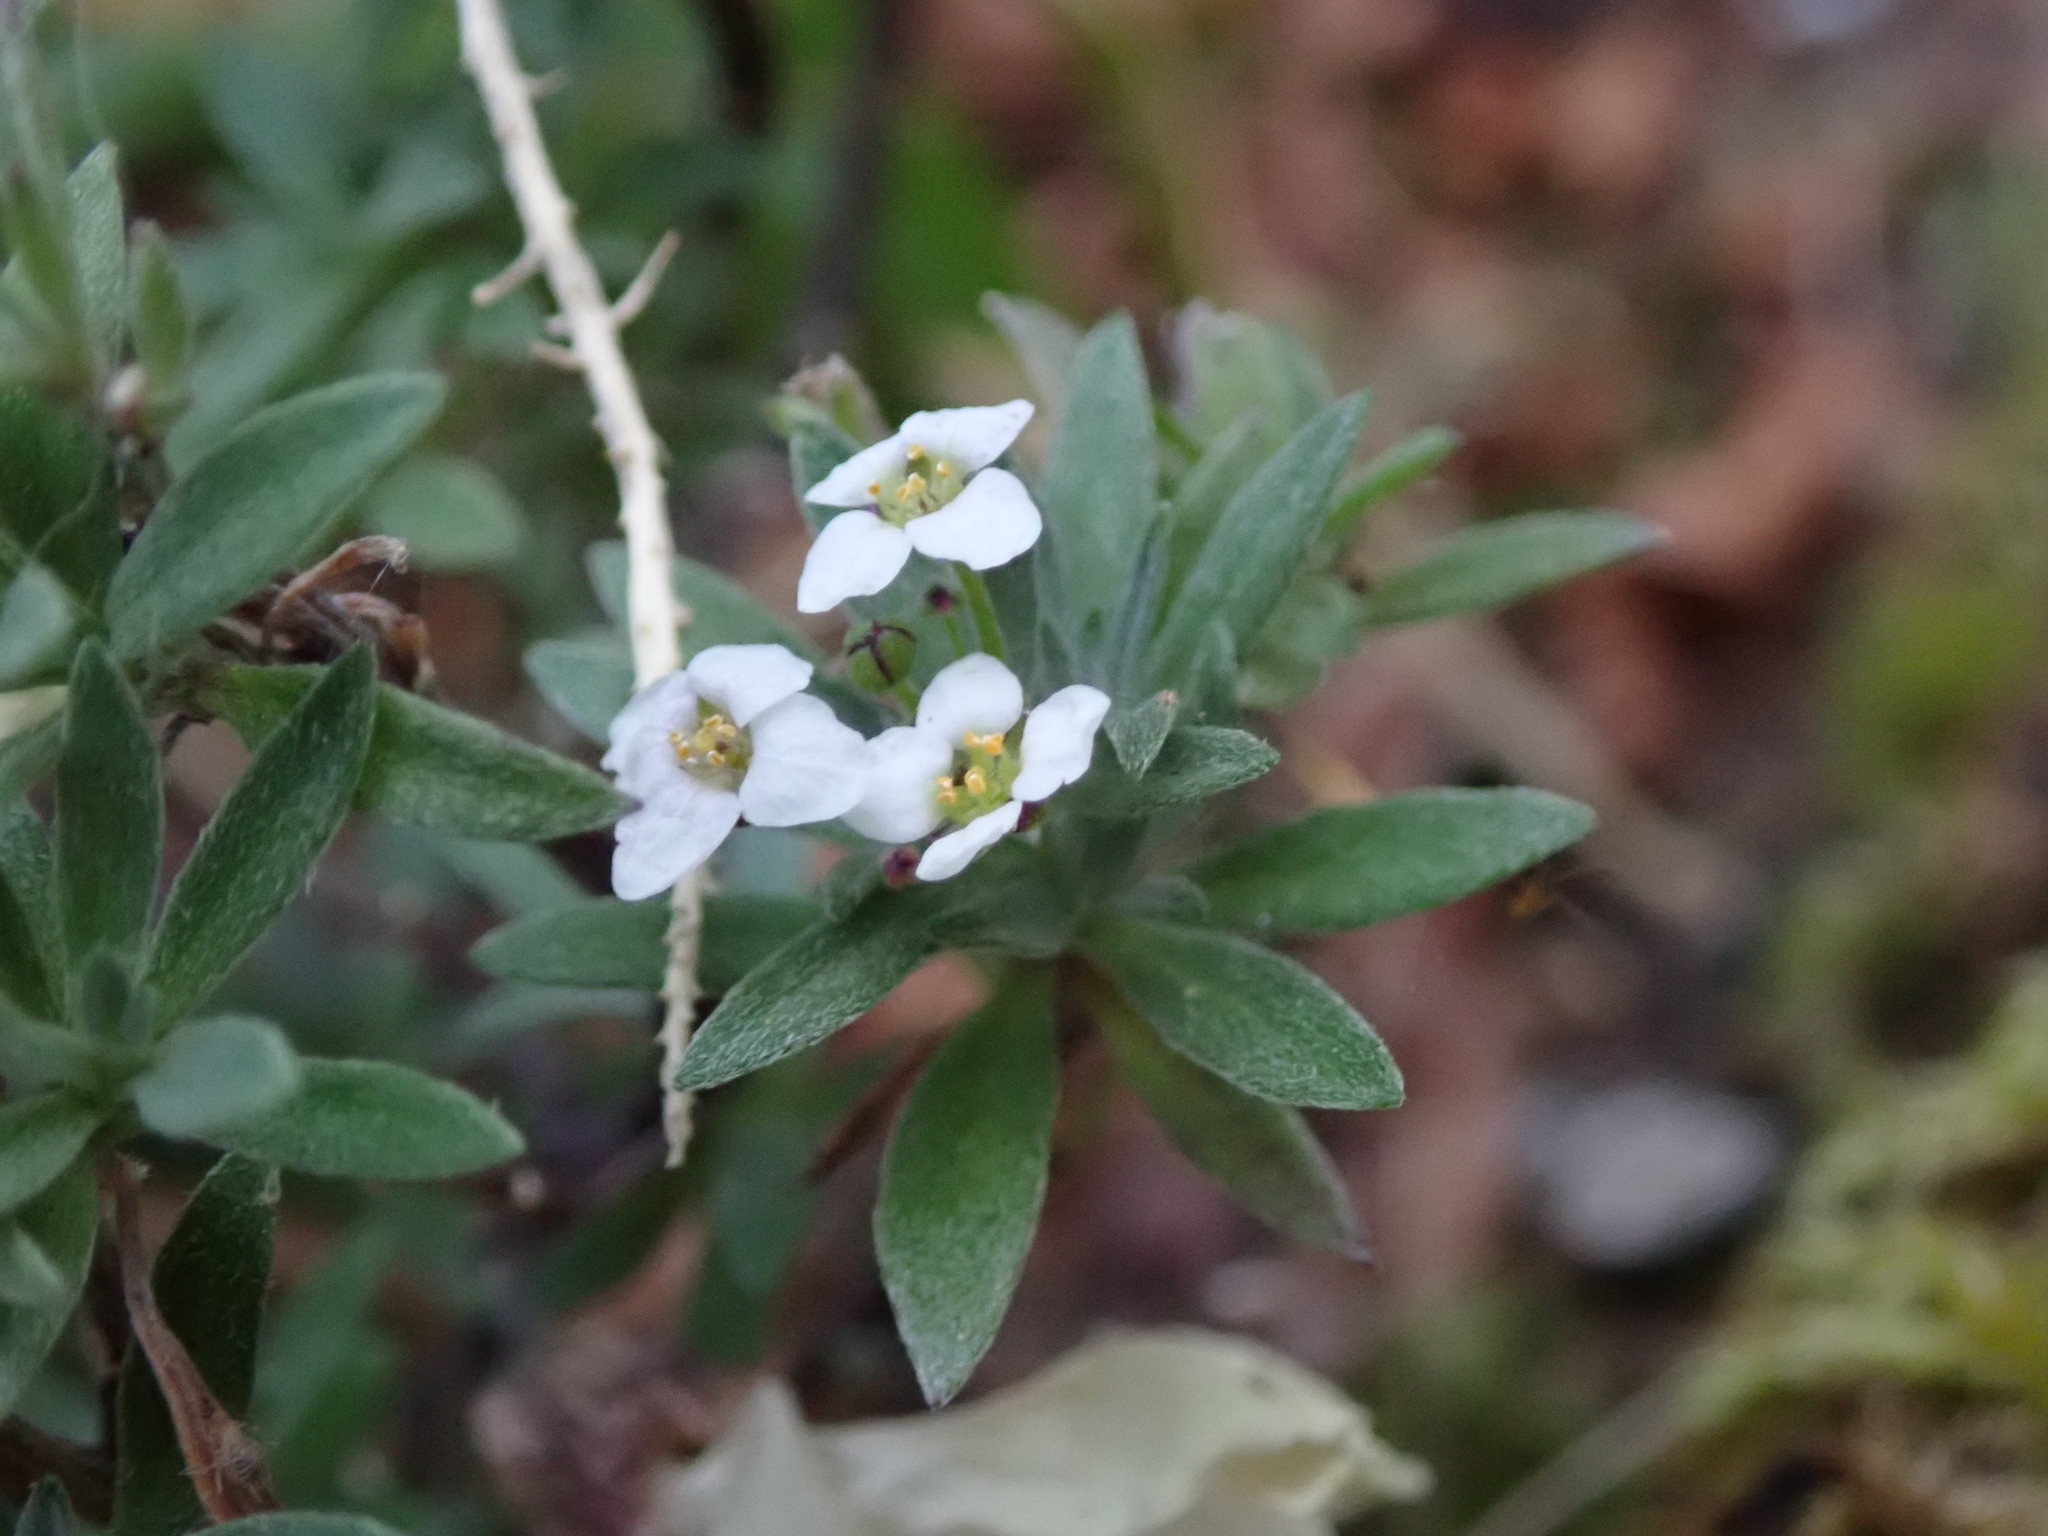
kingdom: Plantae
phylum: Tracheophyta
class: Magnoliopsida
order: Brassicales
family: Brassicaceae
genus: Lobularia
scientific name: Lobularia maritima
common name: Sweet alison
